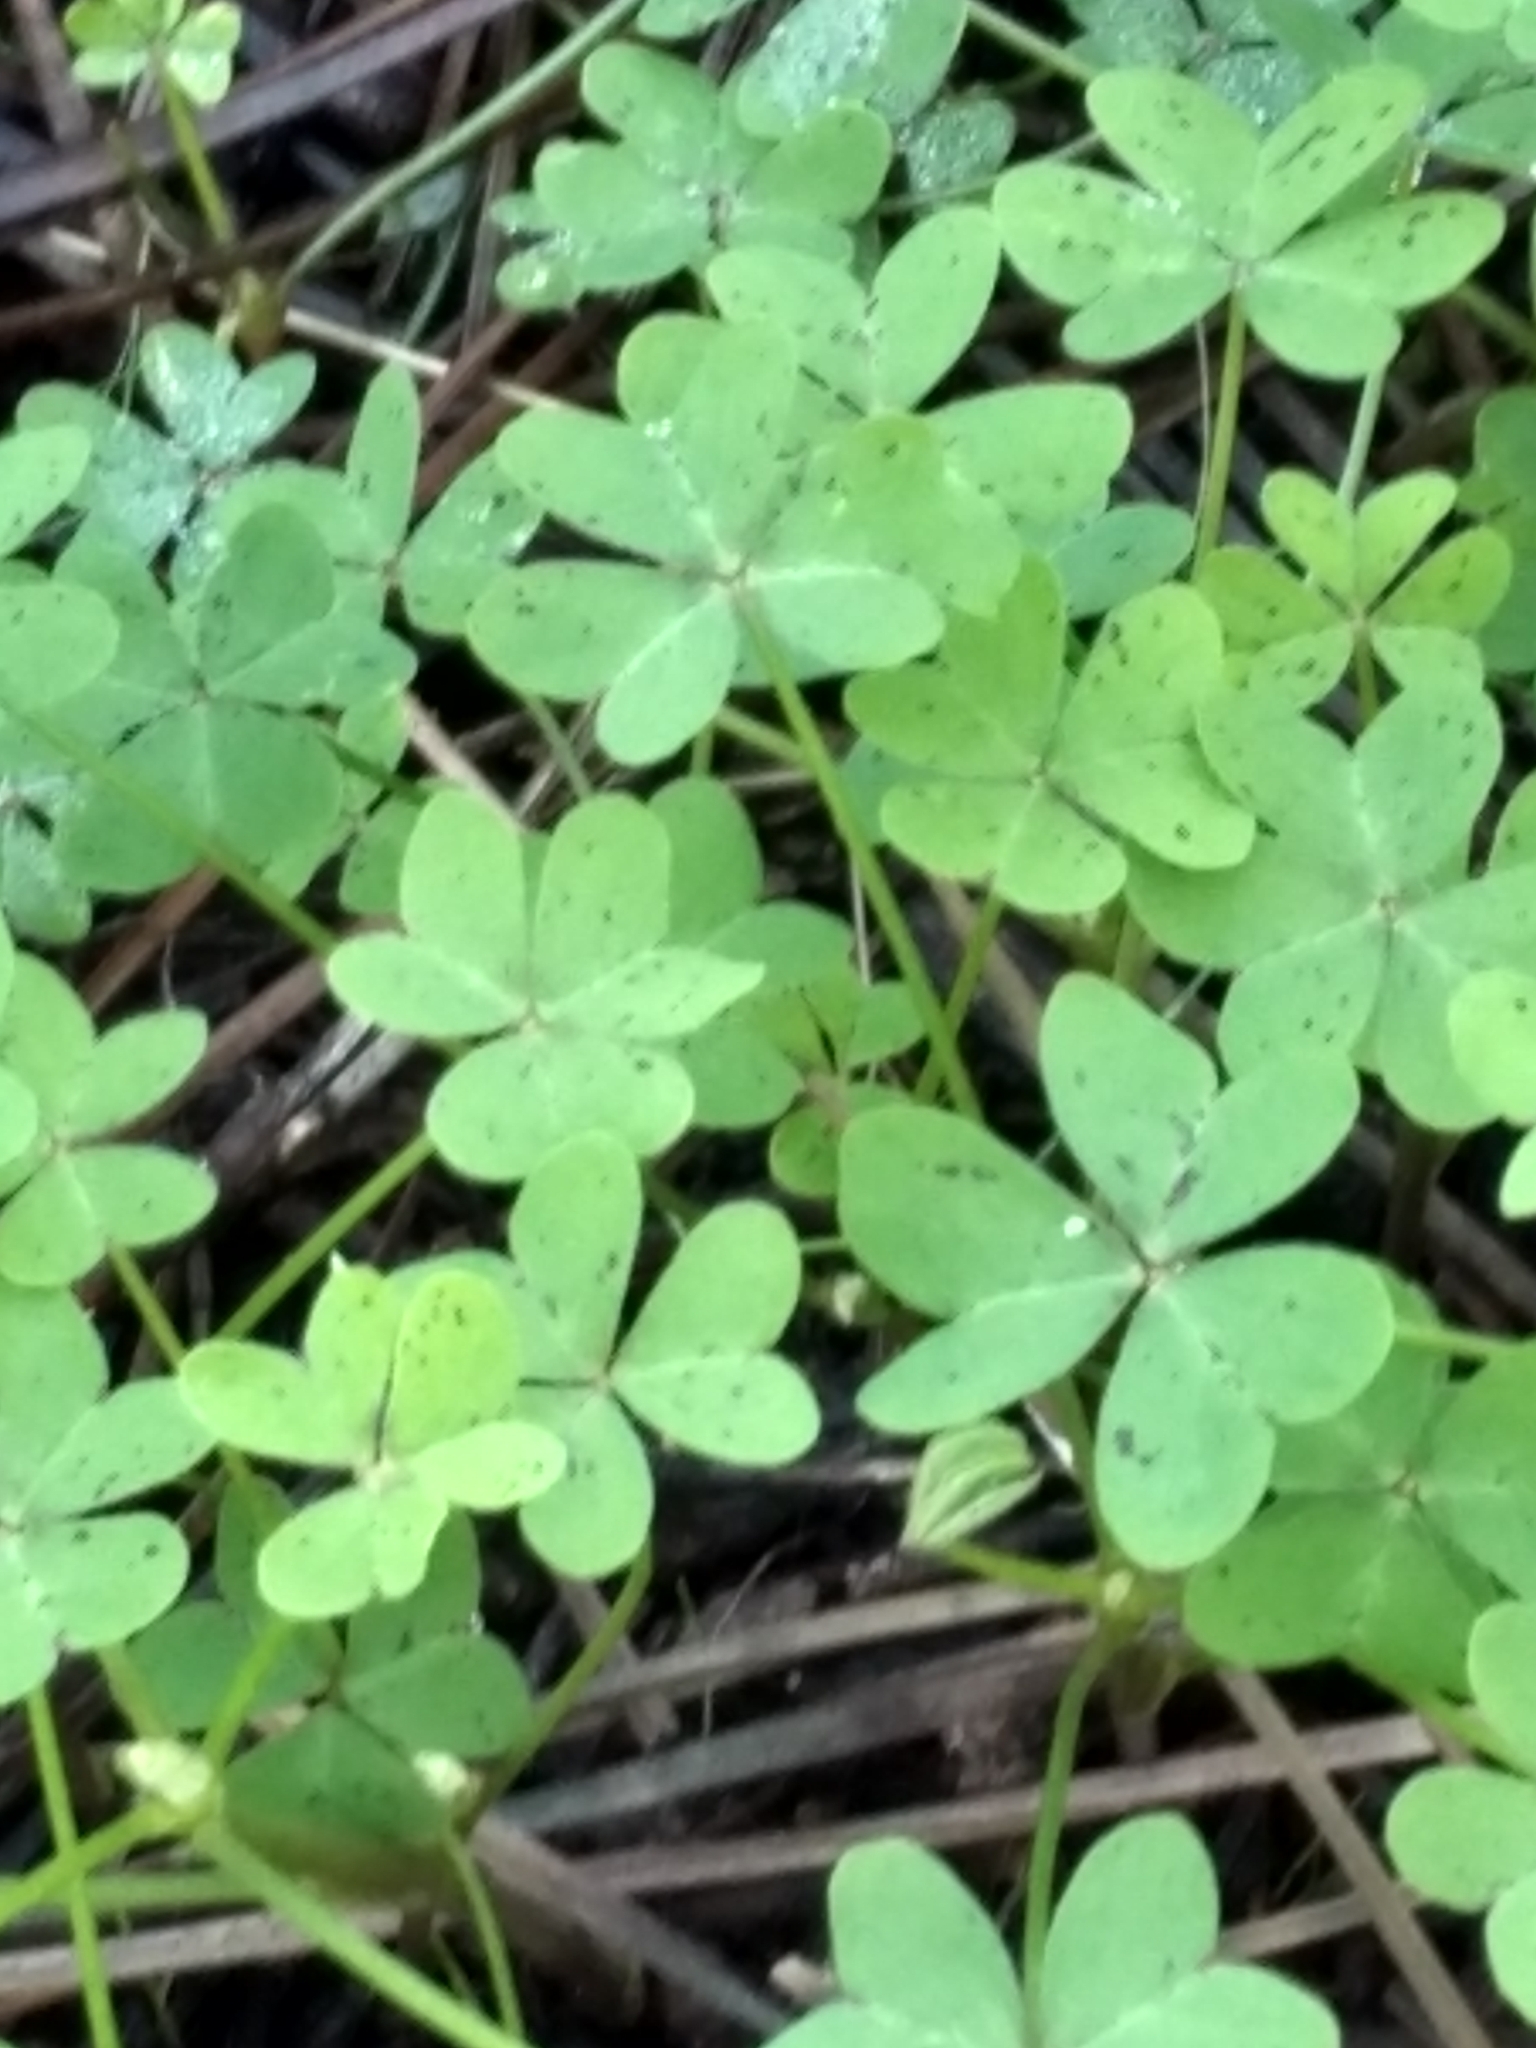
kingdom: Plantae
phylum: Tracheophyta
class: Magnoliopsida
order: Oxalidales
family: Oxalidaceae
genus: Oxalis
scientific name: Oxalis pes-caprae
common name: Bermuda-buttercup
